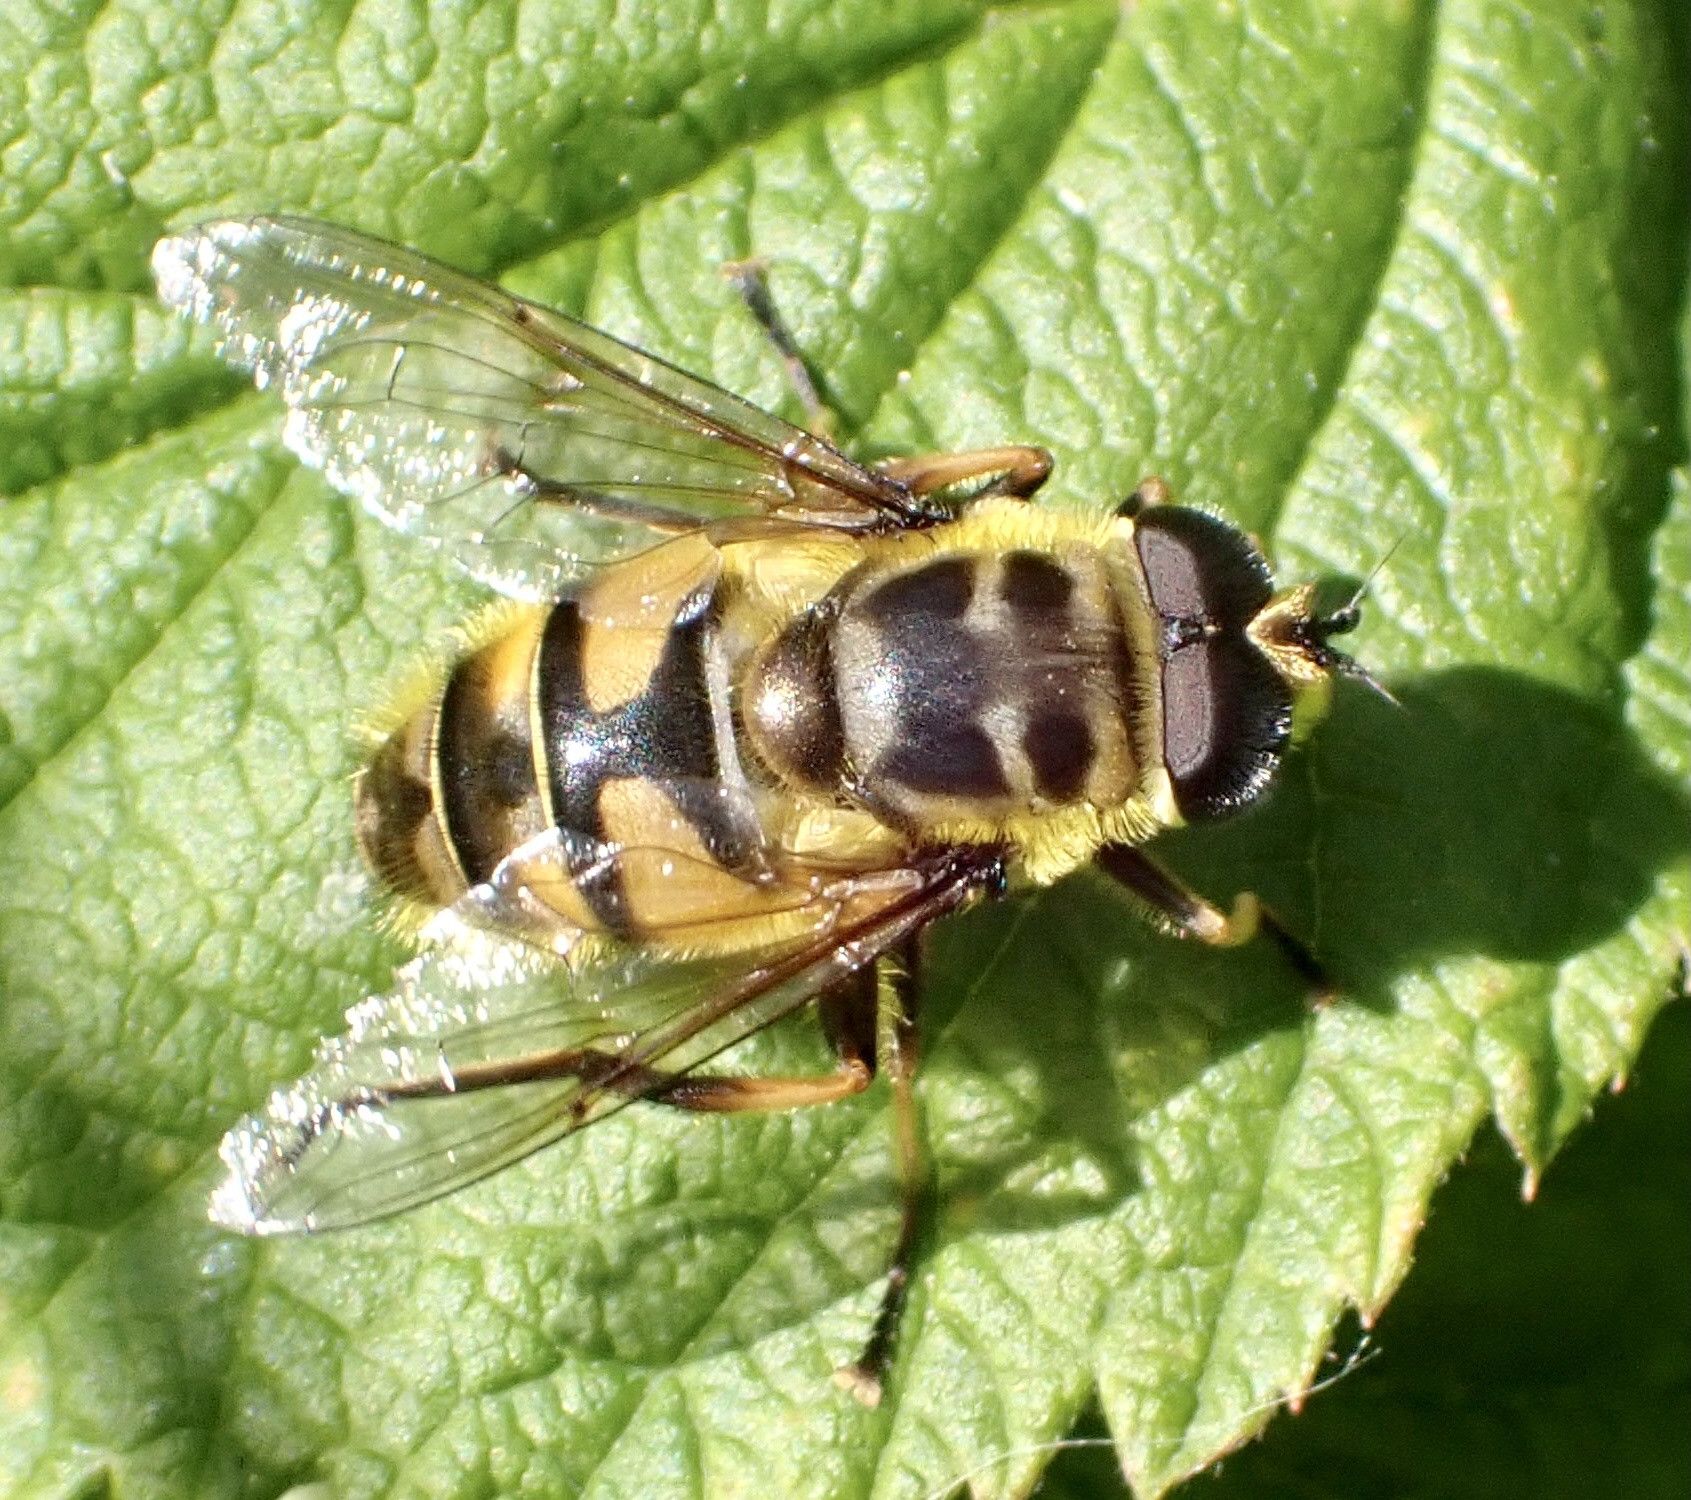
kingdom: Animalia
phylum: Arthropoda
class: Insecta
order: Diptera
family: Syrphidae
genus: Myathropa
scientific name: Myathropa florea
